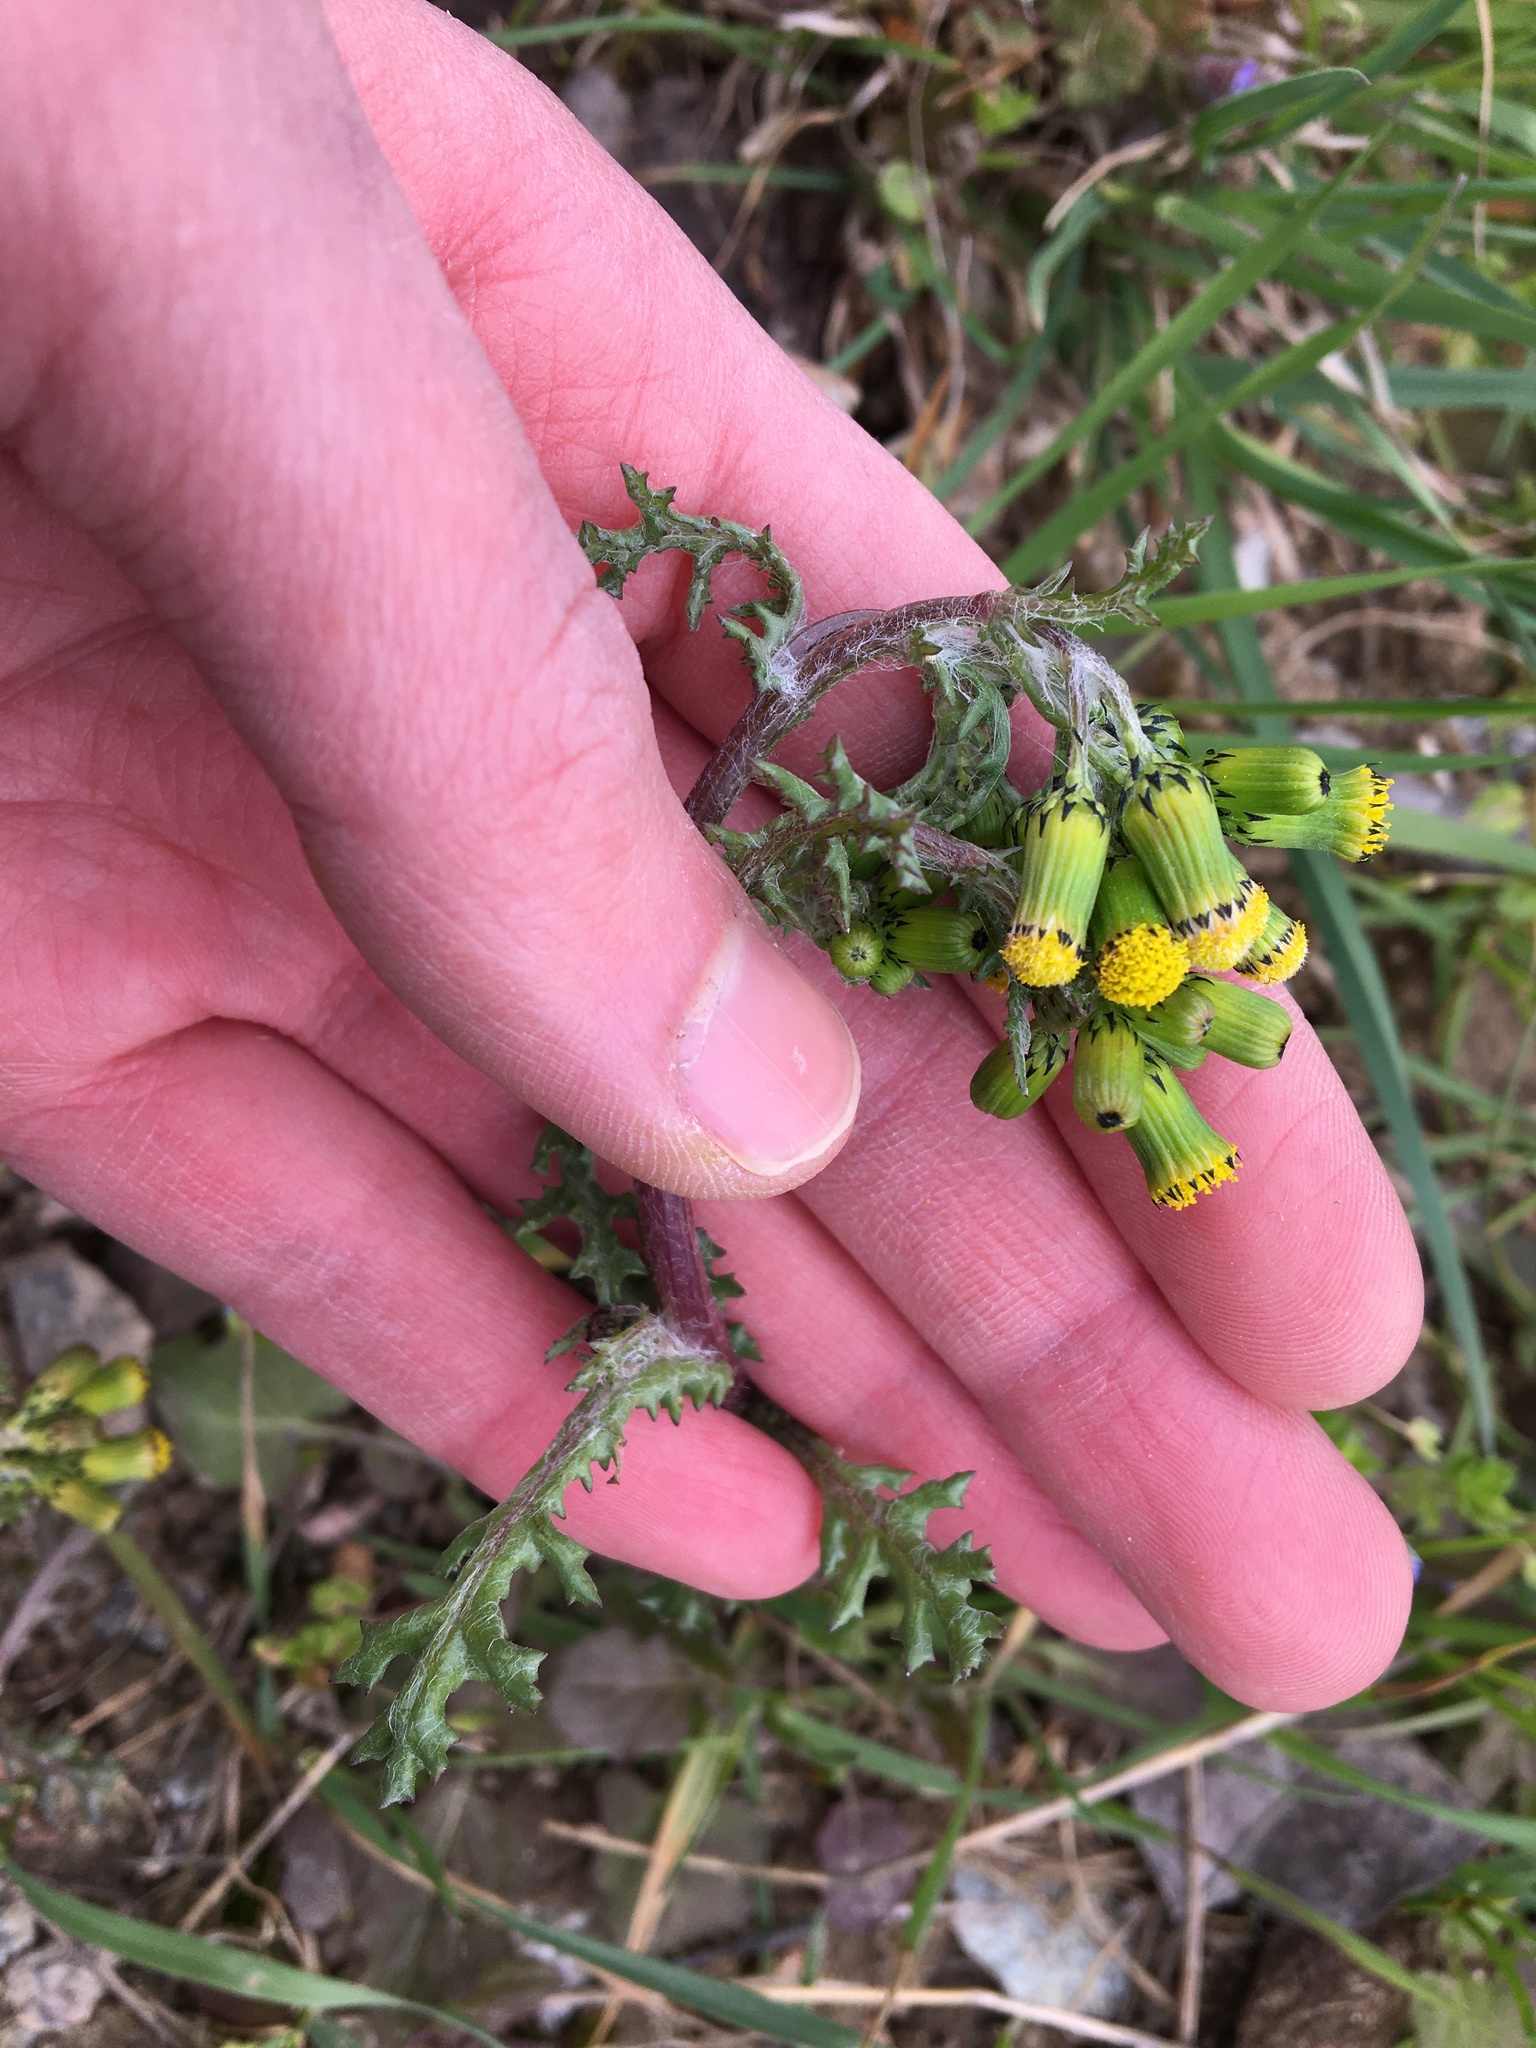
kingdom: Plantae
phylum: Tracheophyta
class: Magnoliopsida
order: Asterales
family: Asteraceae
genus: Senecio
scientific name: Senecio vulgaris
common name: Old-man-in-the-spring
